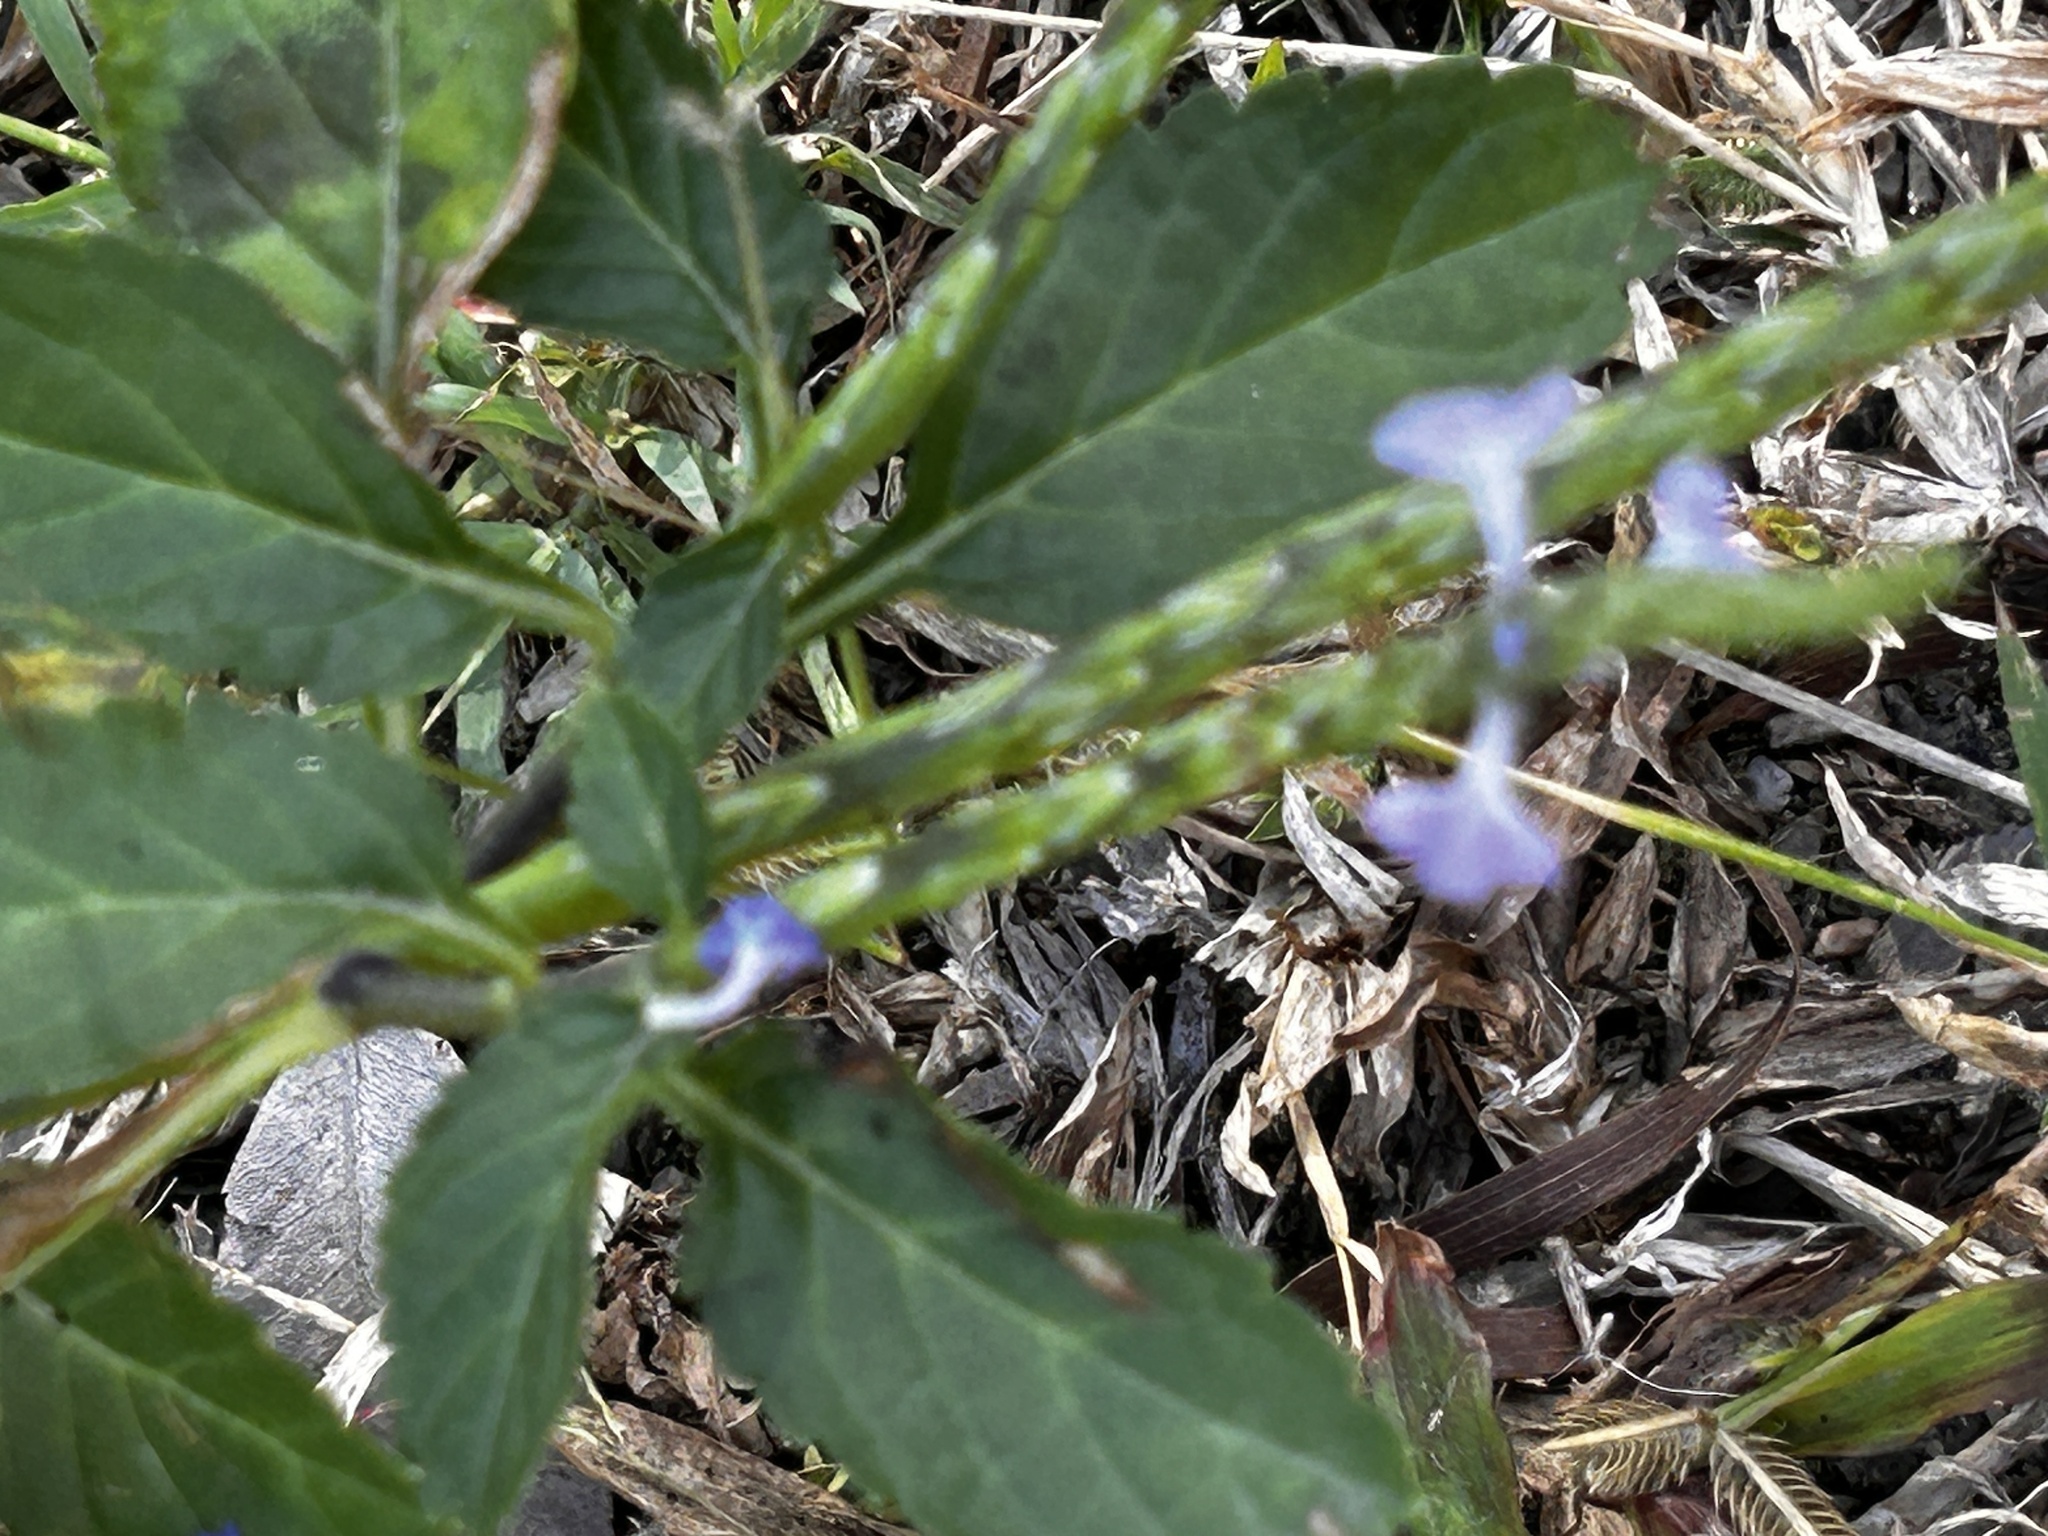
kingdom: Plantae
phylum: Tracheophyta
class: Magnoliopsida
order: Lamiales
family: Verbenaceae
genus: Stachytarpheta
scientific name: Stachytarpheta jamaicensis
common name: Light-blue snakeweed
